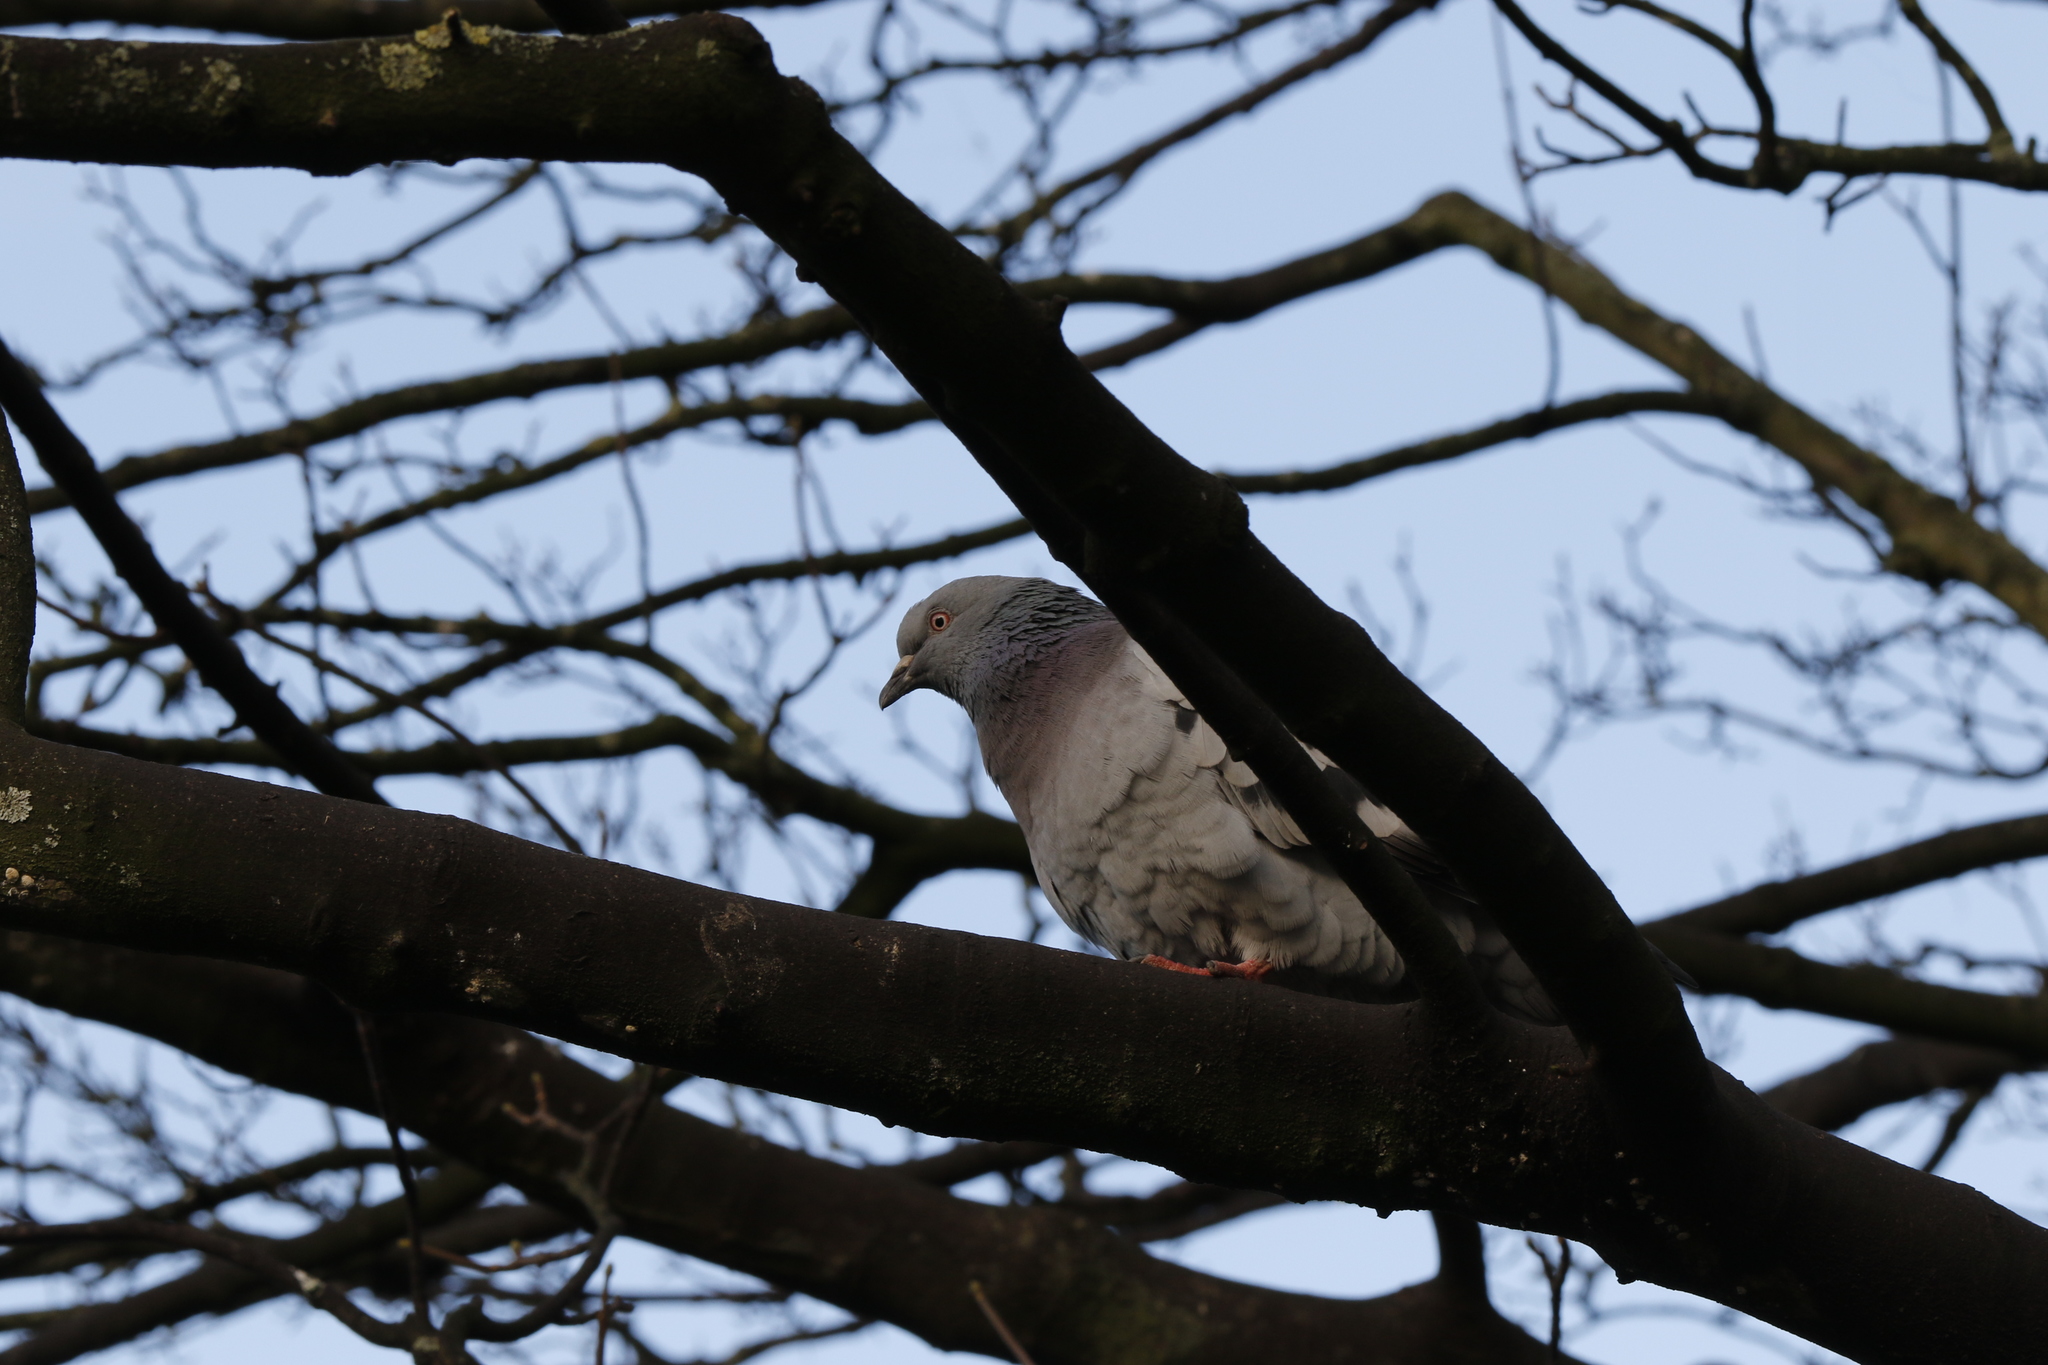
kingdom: Animalia
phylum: Chordata
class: Aves
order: Columbiformes
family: Columbidae
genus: Columba
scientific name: Columba livia
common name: Rock pigeon
